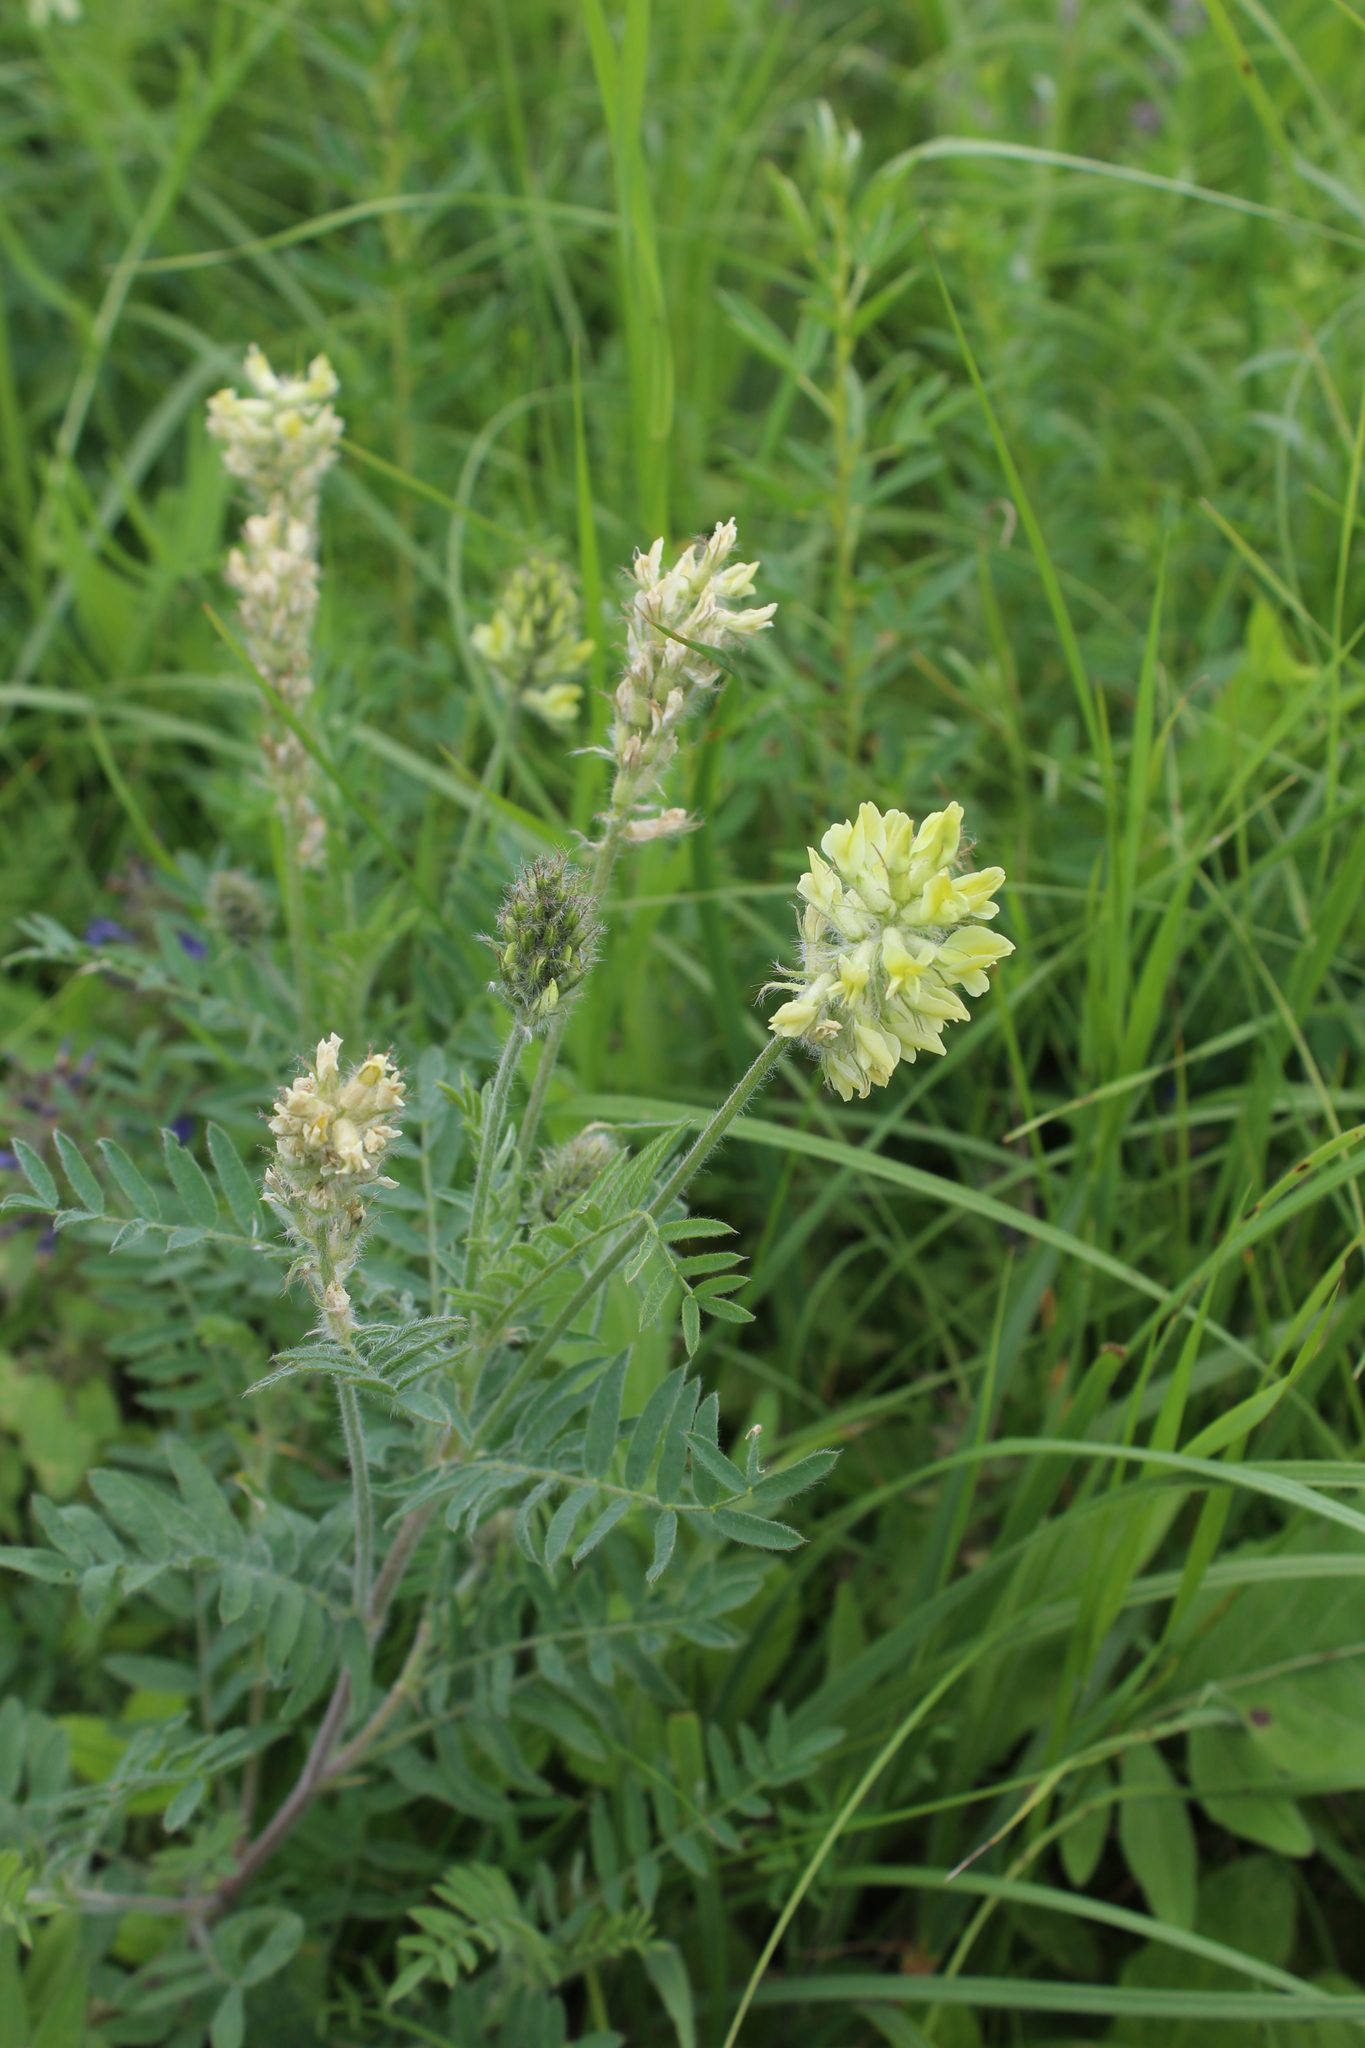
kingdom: Plantae
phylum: Tracheophyta
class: Magnoliopsida
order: Fabales
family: Fabaceae
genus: Oxytropis
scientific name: Oxytropis pilosa
